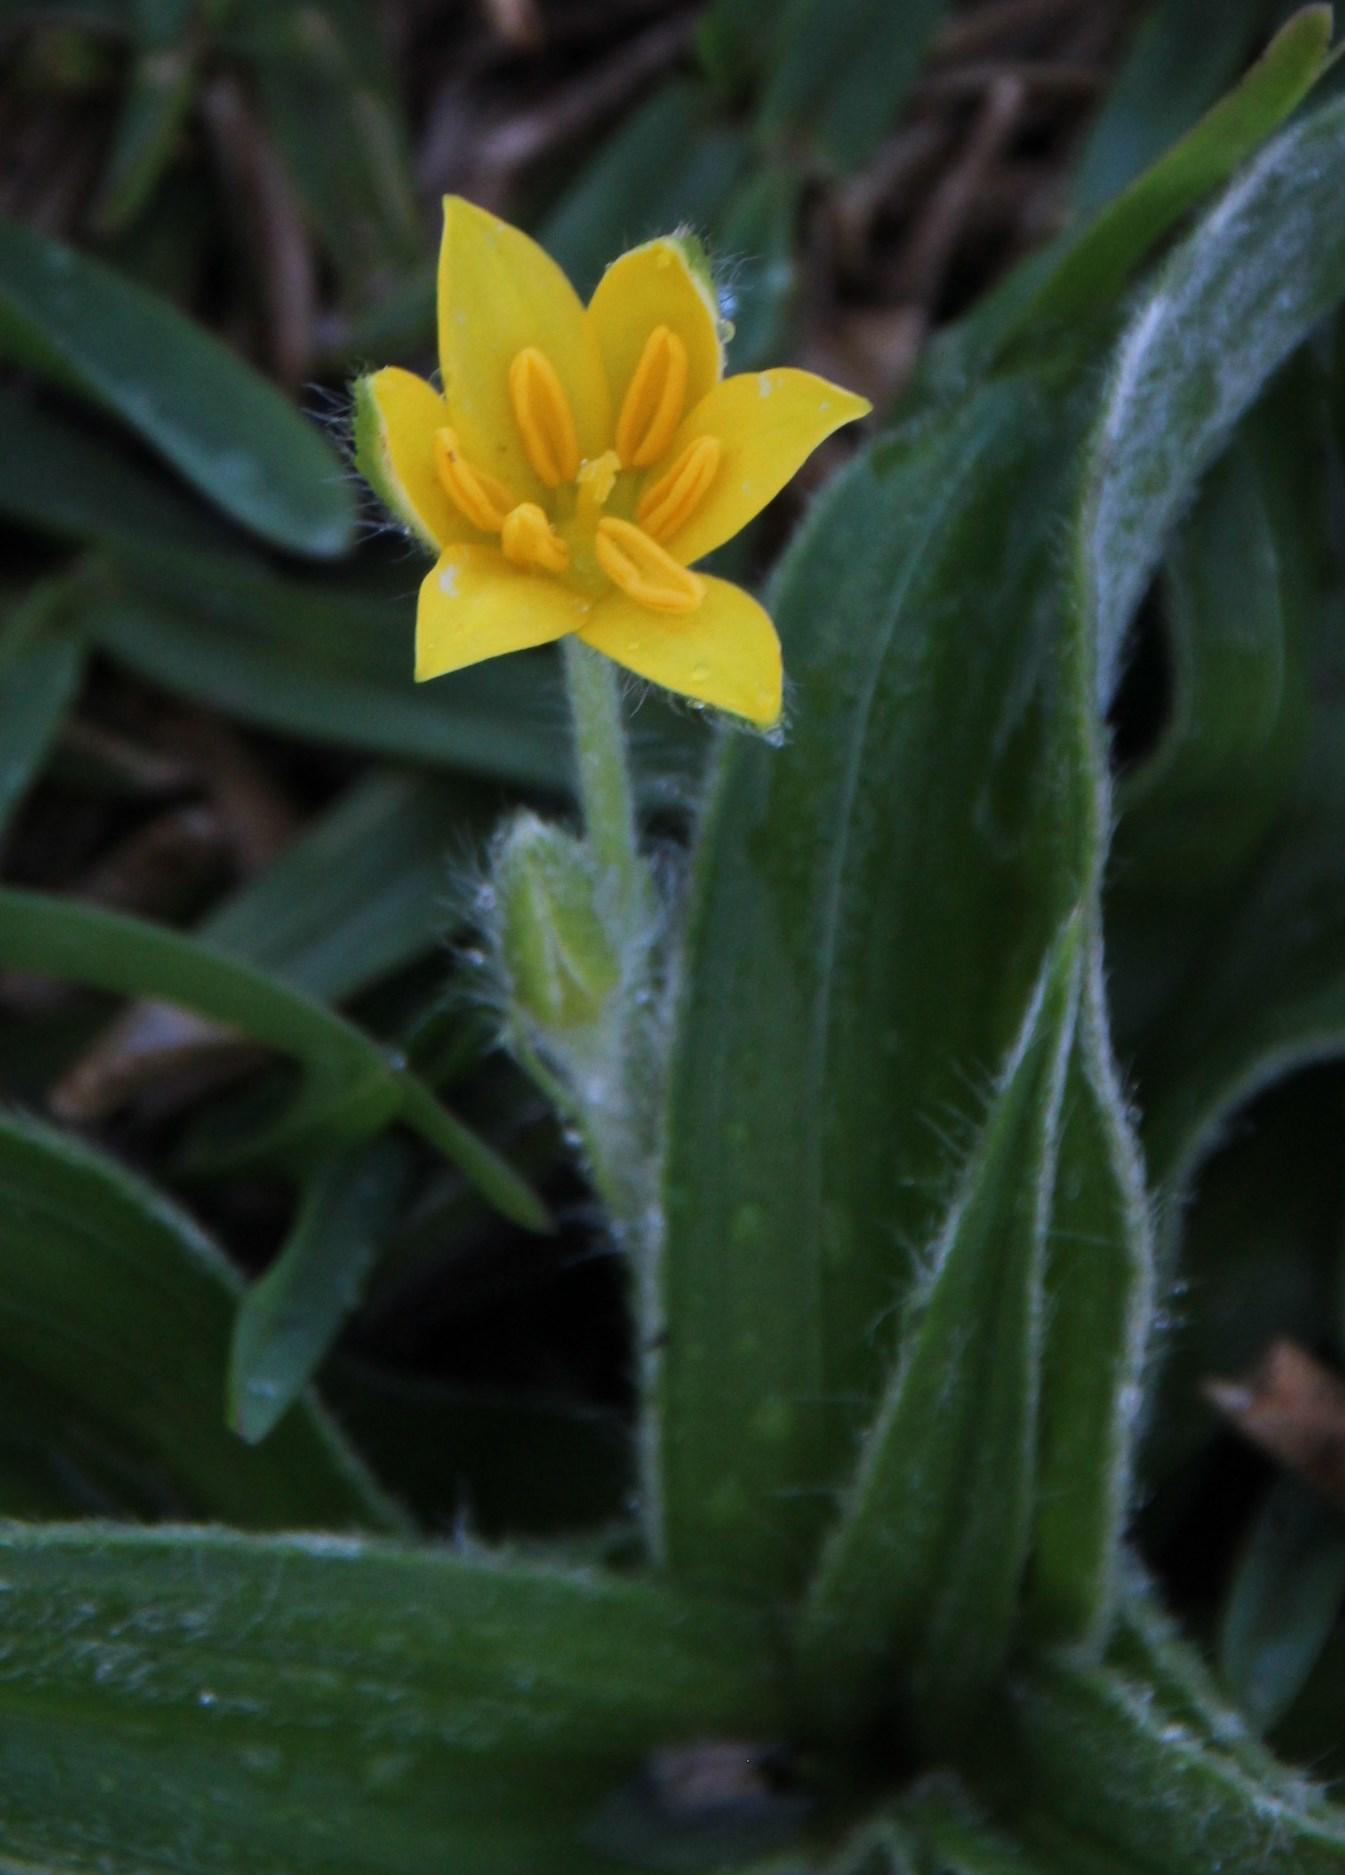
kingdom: Plantae
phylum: Tracheophyta
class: Liliopsida
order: Asparagales
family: Hypoxidaceae
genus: Hypoxis
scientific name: Hypoxis angustifolia
